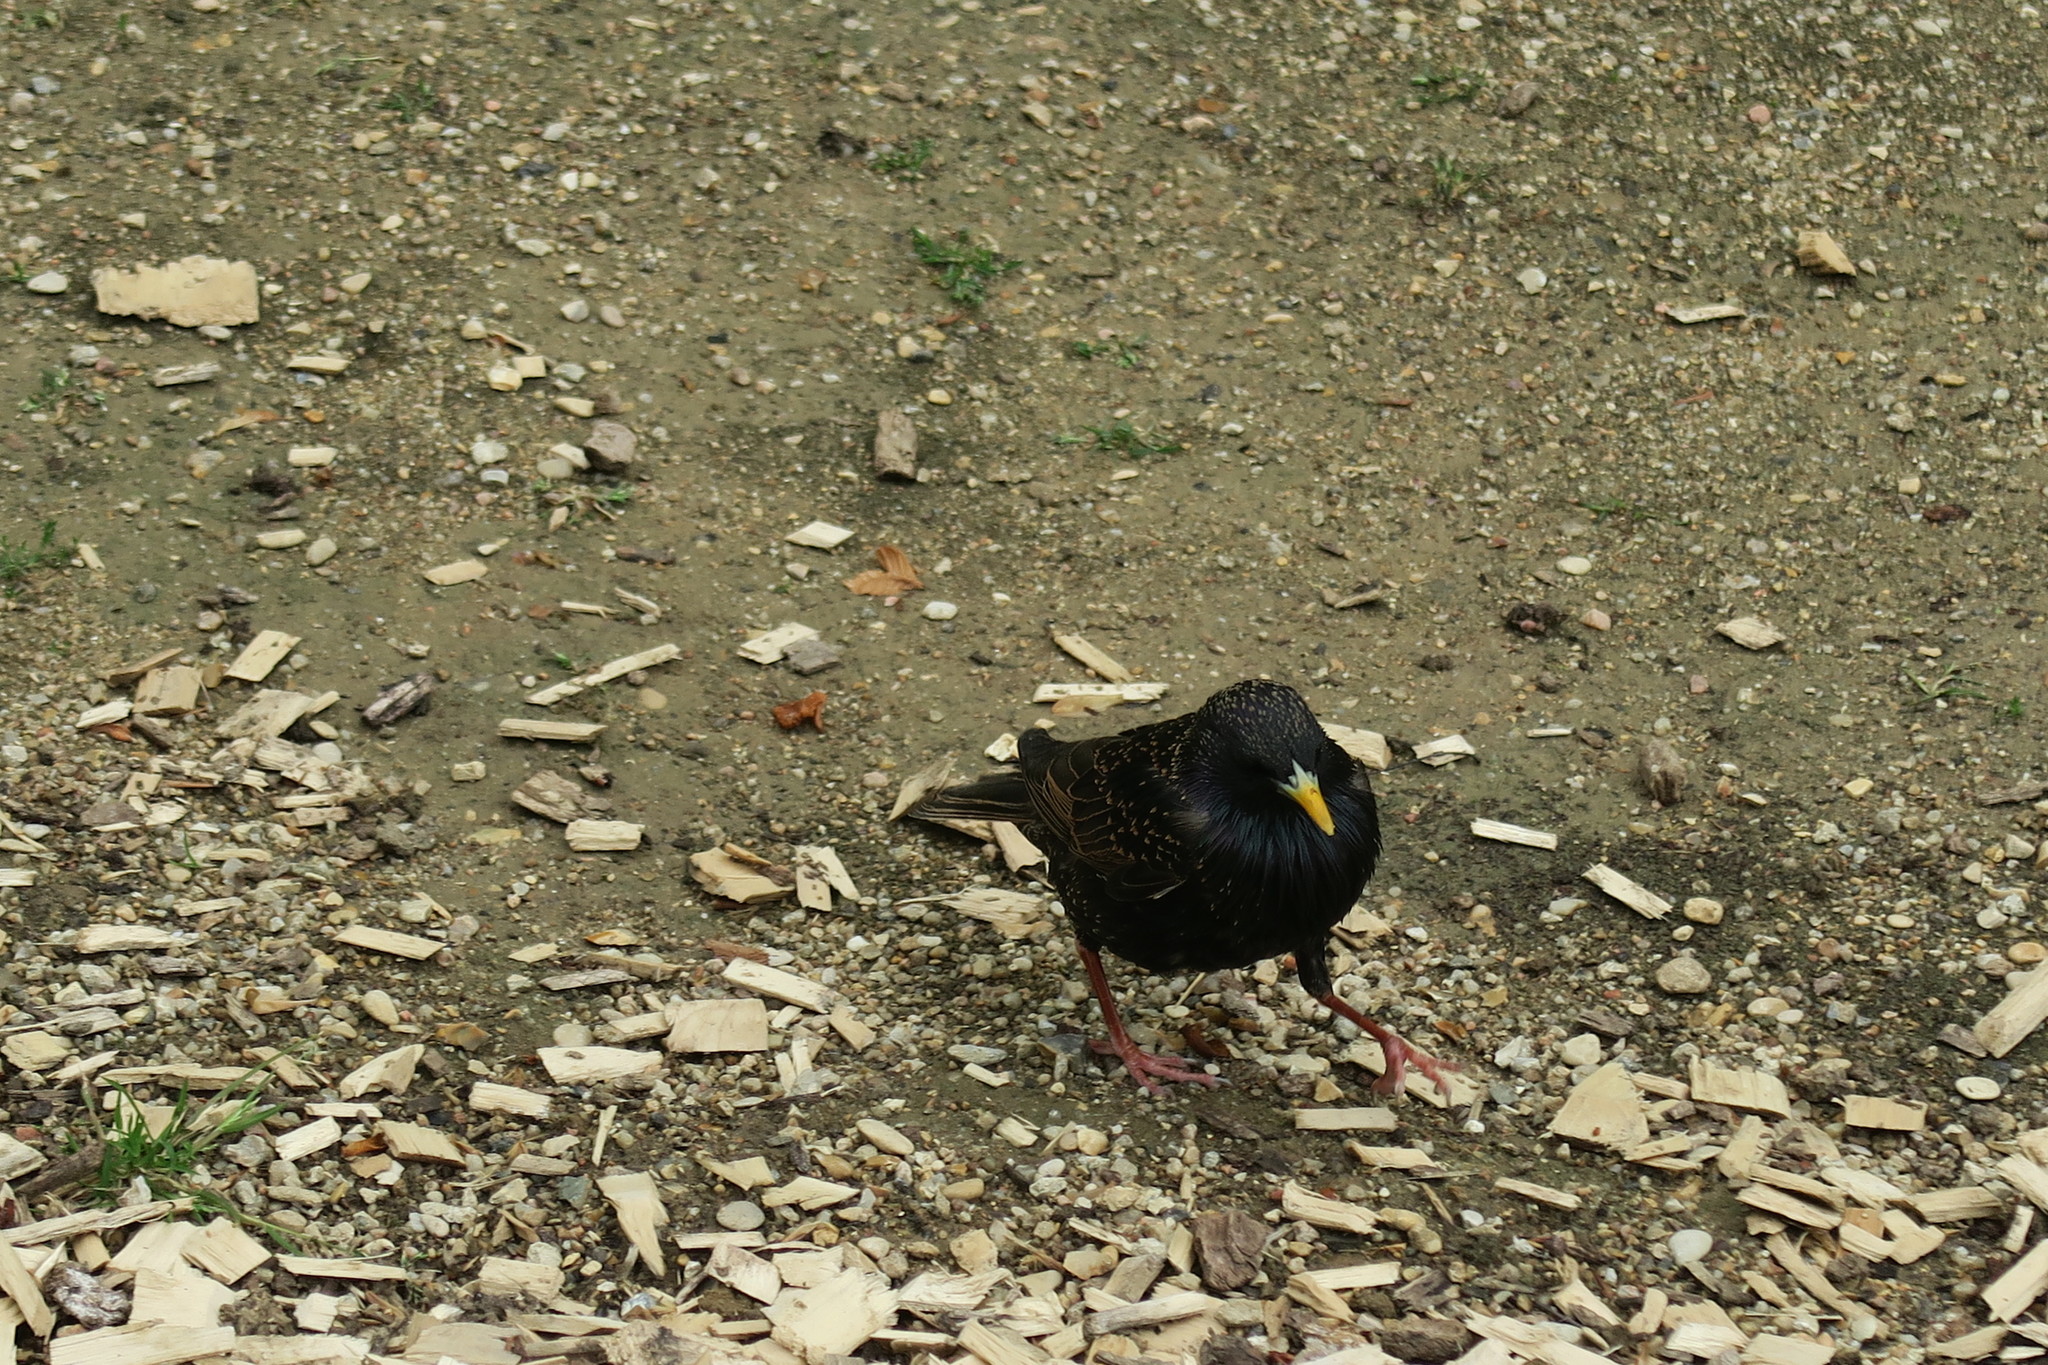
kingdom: Animalia
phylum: Chordata
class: Aves
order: Passeriformes
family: Sturnidae
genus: Sturnus
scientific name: Sturnus vulgaris
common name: Common starling
